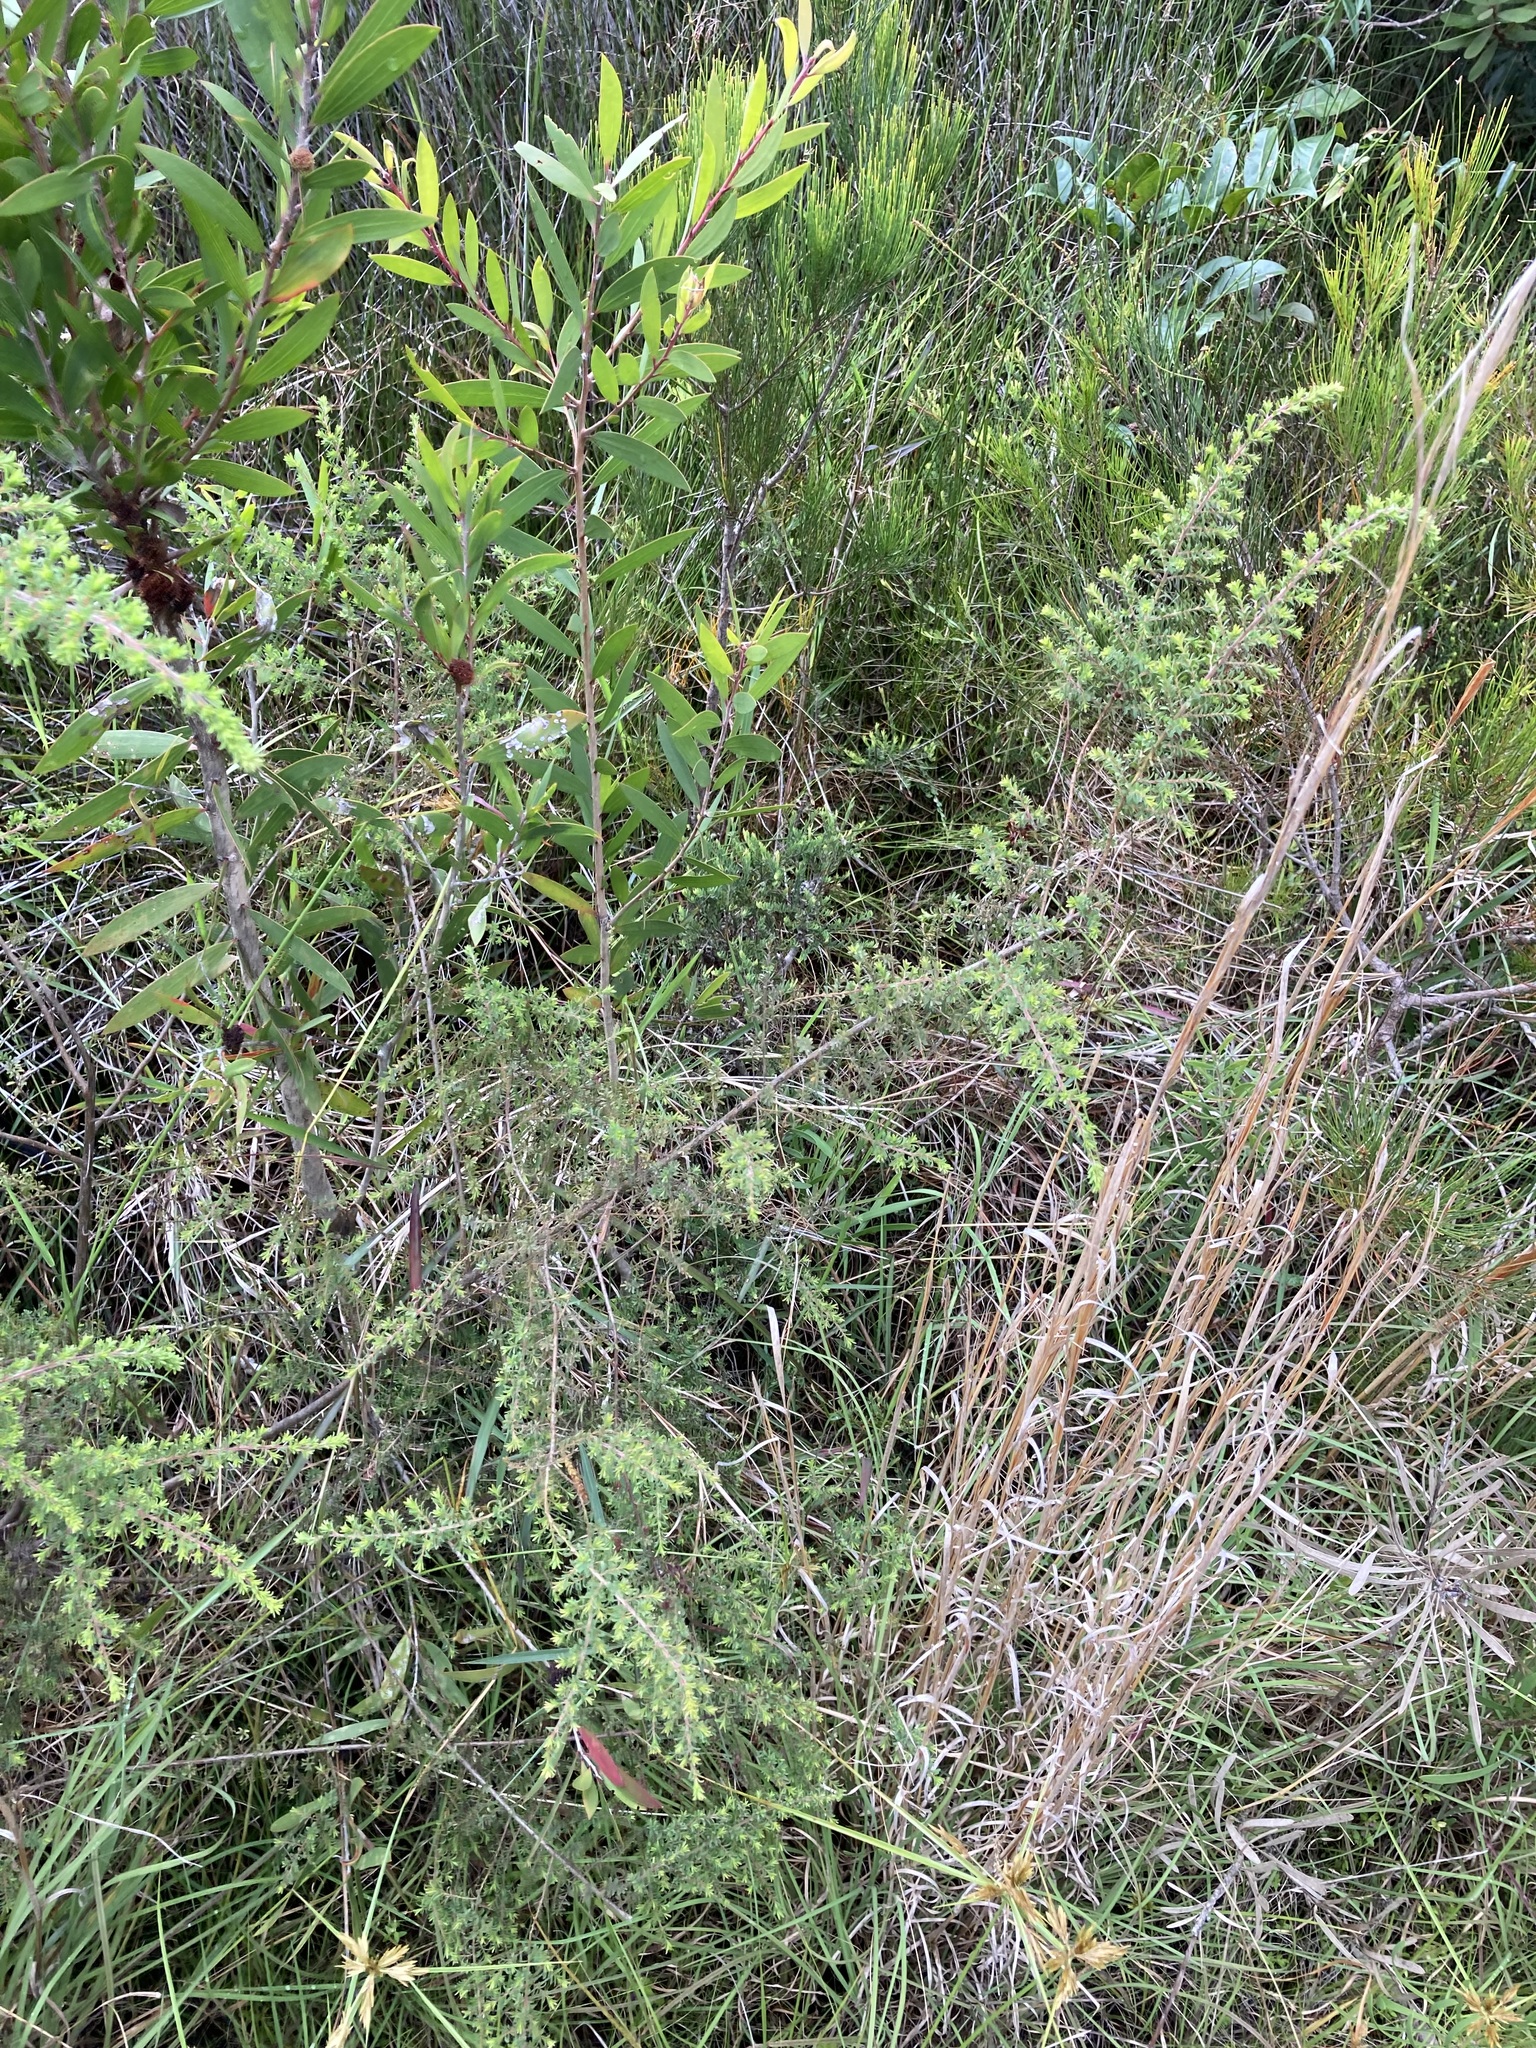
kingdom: Plantae
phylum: Tracheophyta
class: Magnoliopsida
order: Fabales
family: Fabaceae
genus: Pultenaea
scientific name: Pultenaea villosa
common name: Bronze bush-pea
